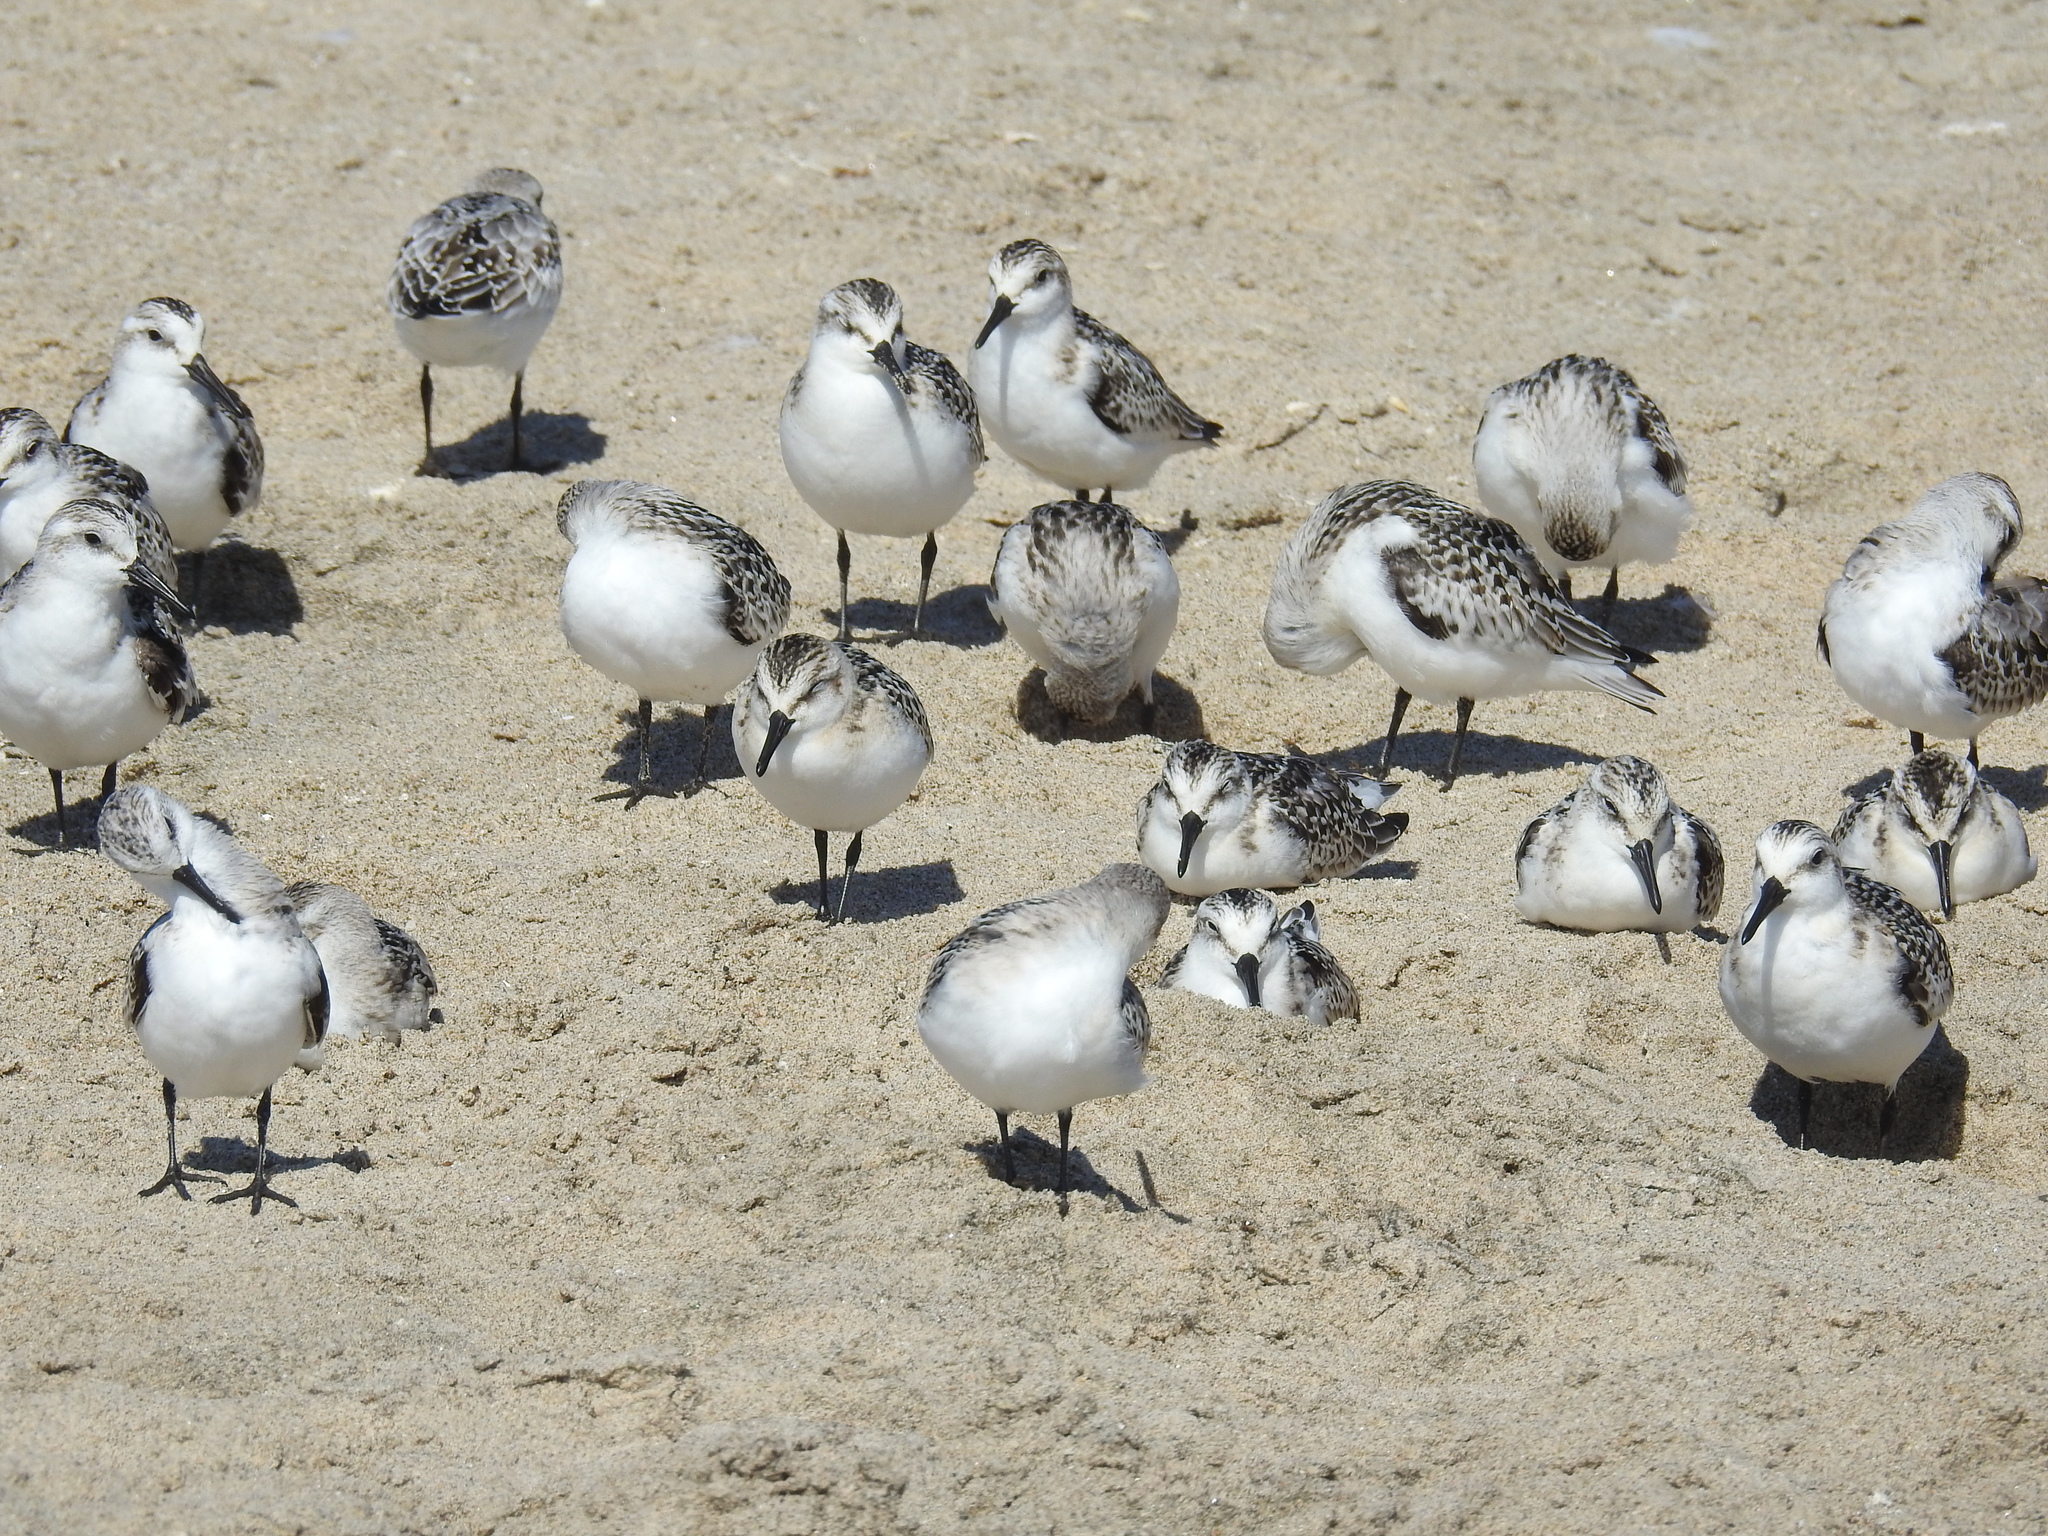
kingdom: Animalia
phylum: Chordata
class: Aves
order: Charadriiformes
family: Scolopacidae
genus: Calidris
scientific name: Calidris alba
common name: Sanderling
